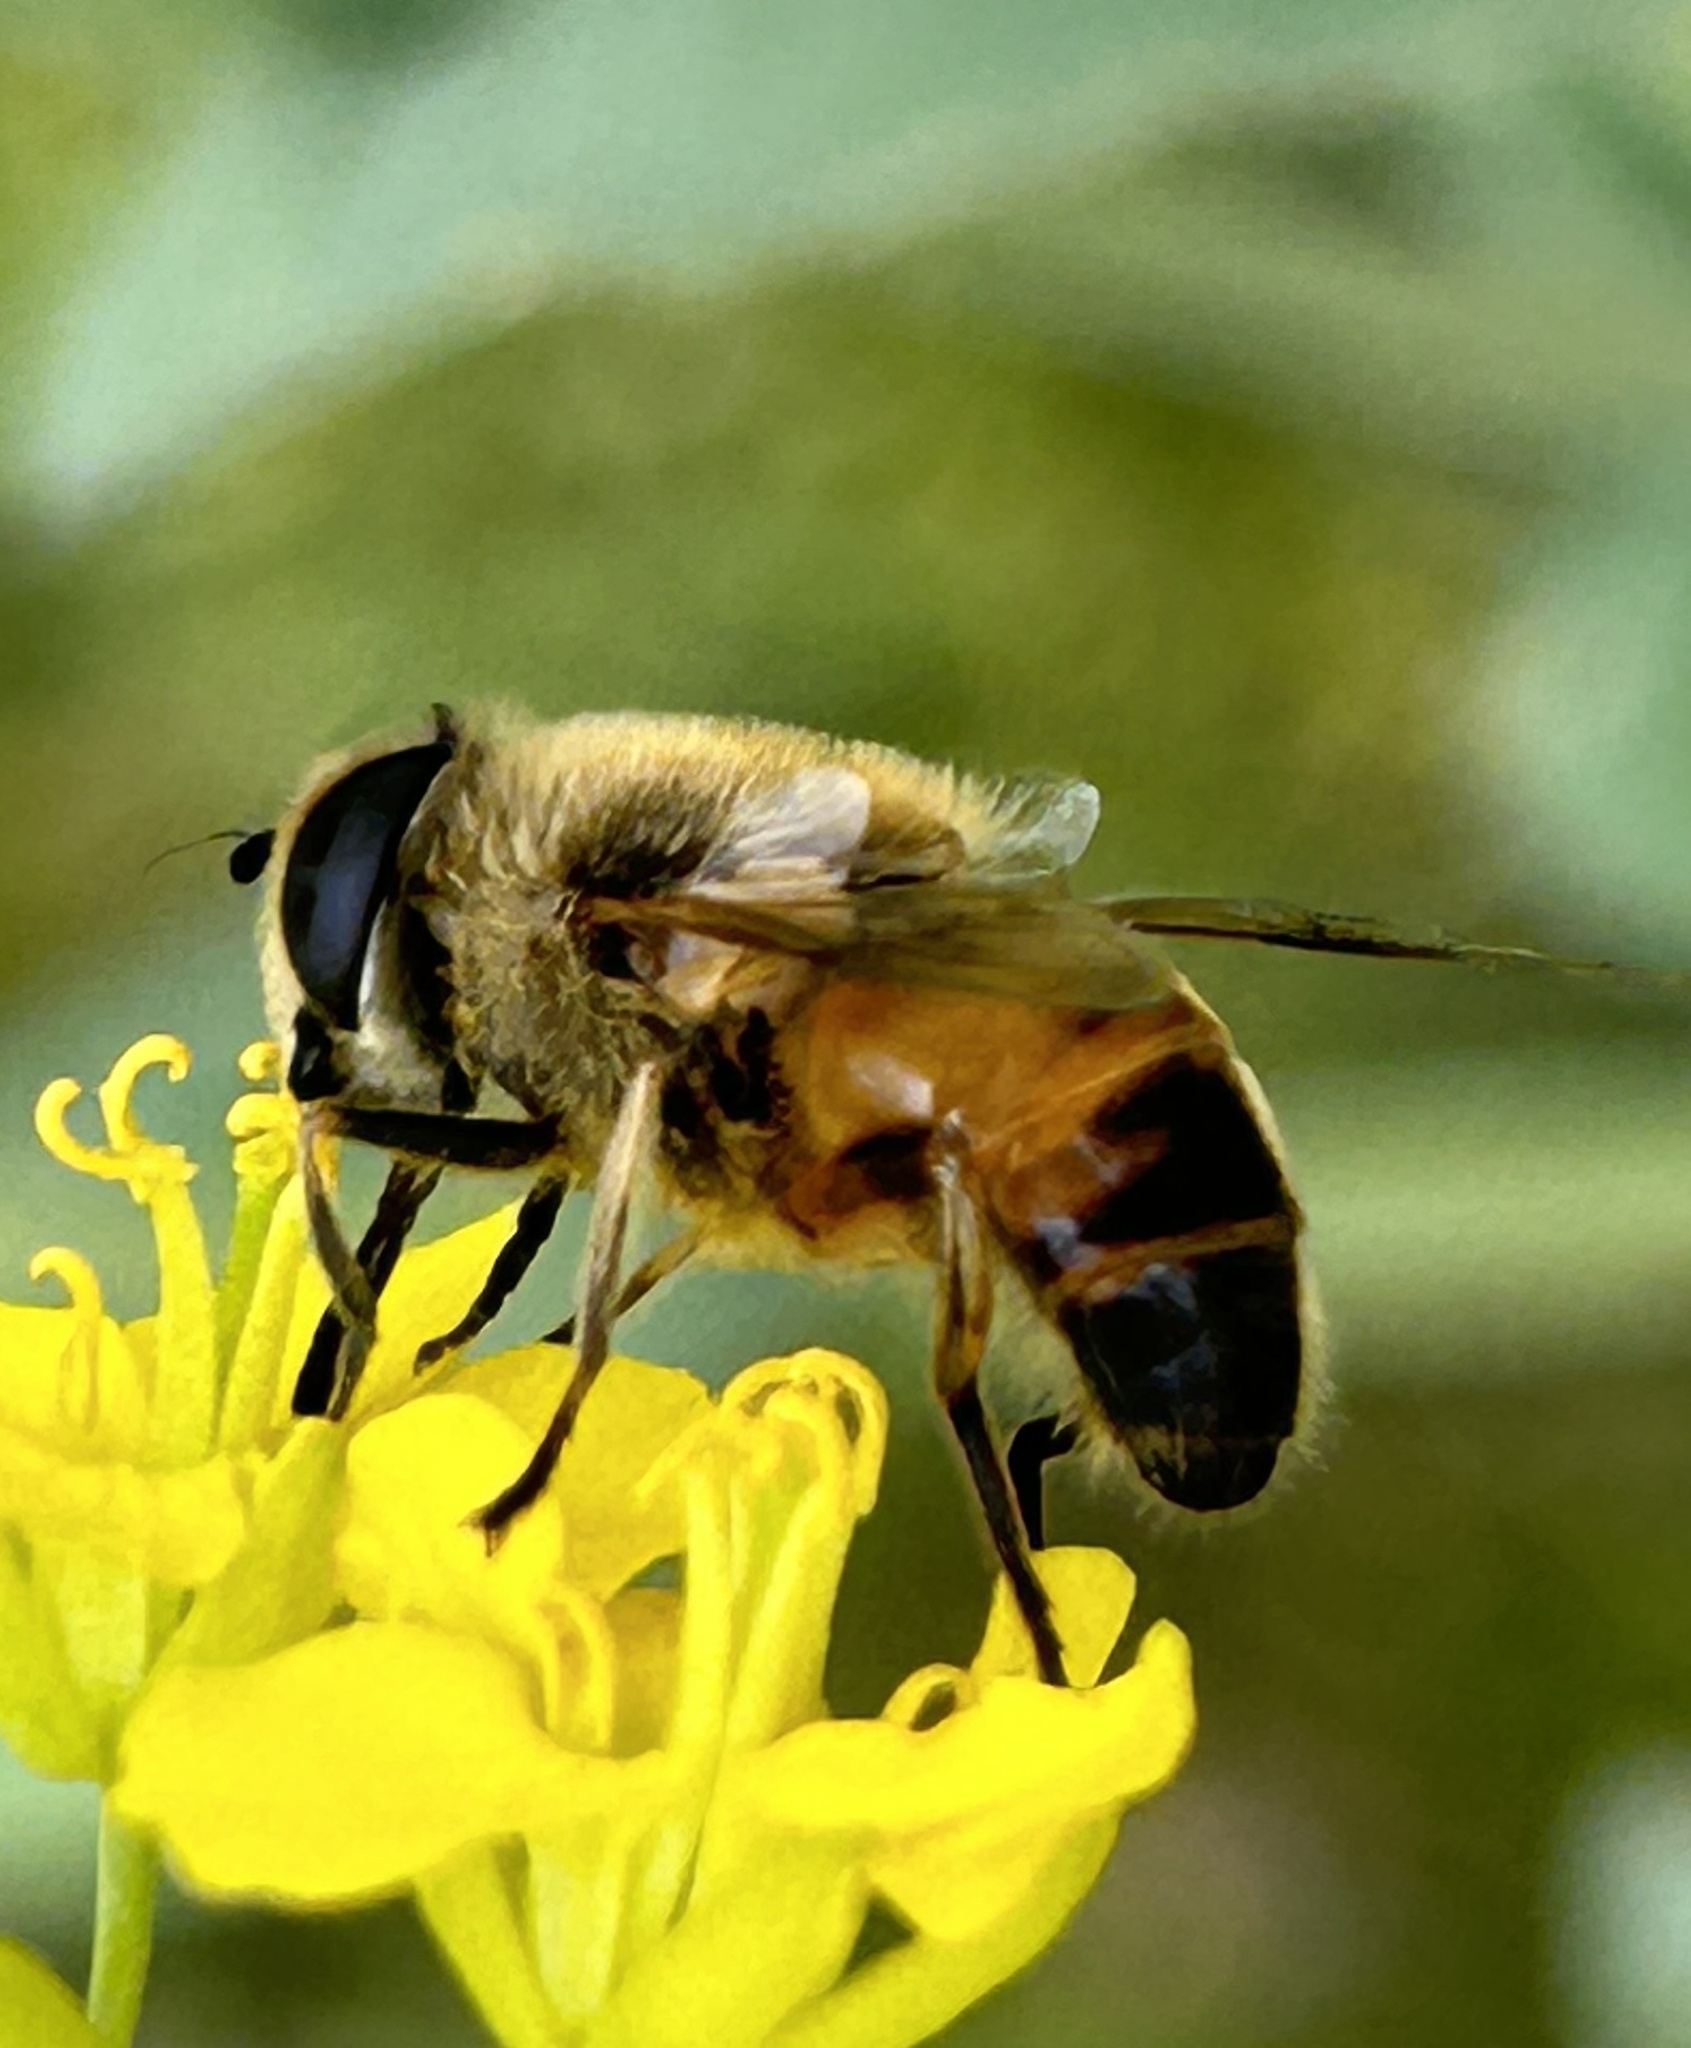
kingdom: Animalia
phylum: Arthropoda
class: Insecta
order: Diptera
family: Syrphidae
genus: Eristalis
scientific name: Eristalis tenax
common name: Drone fly
